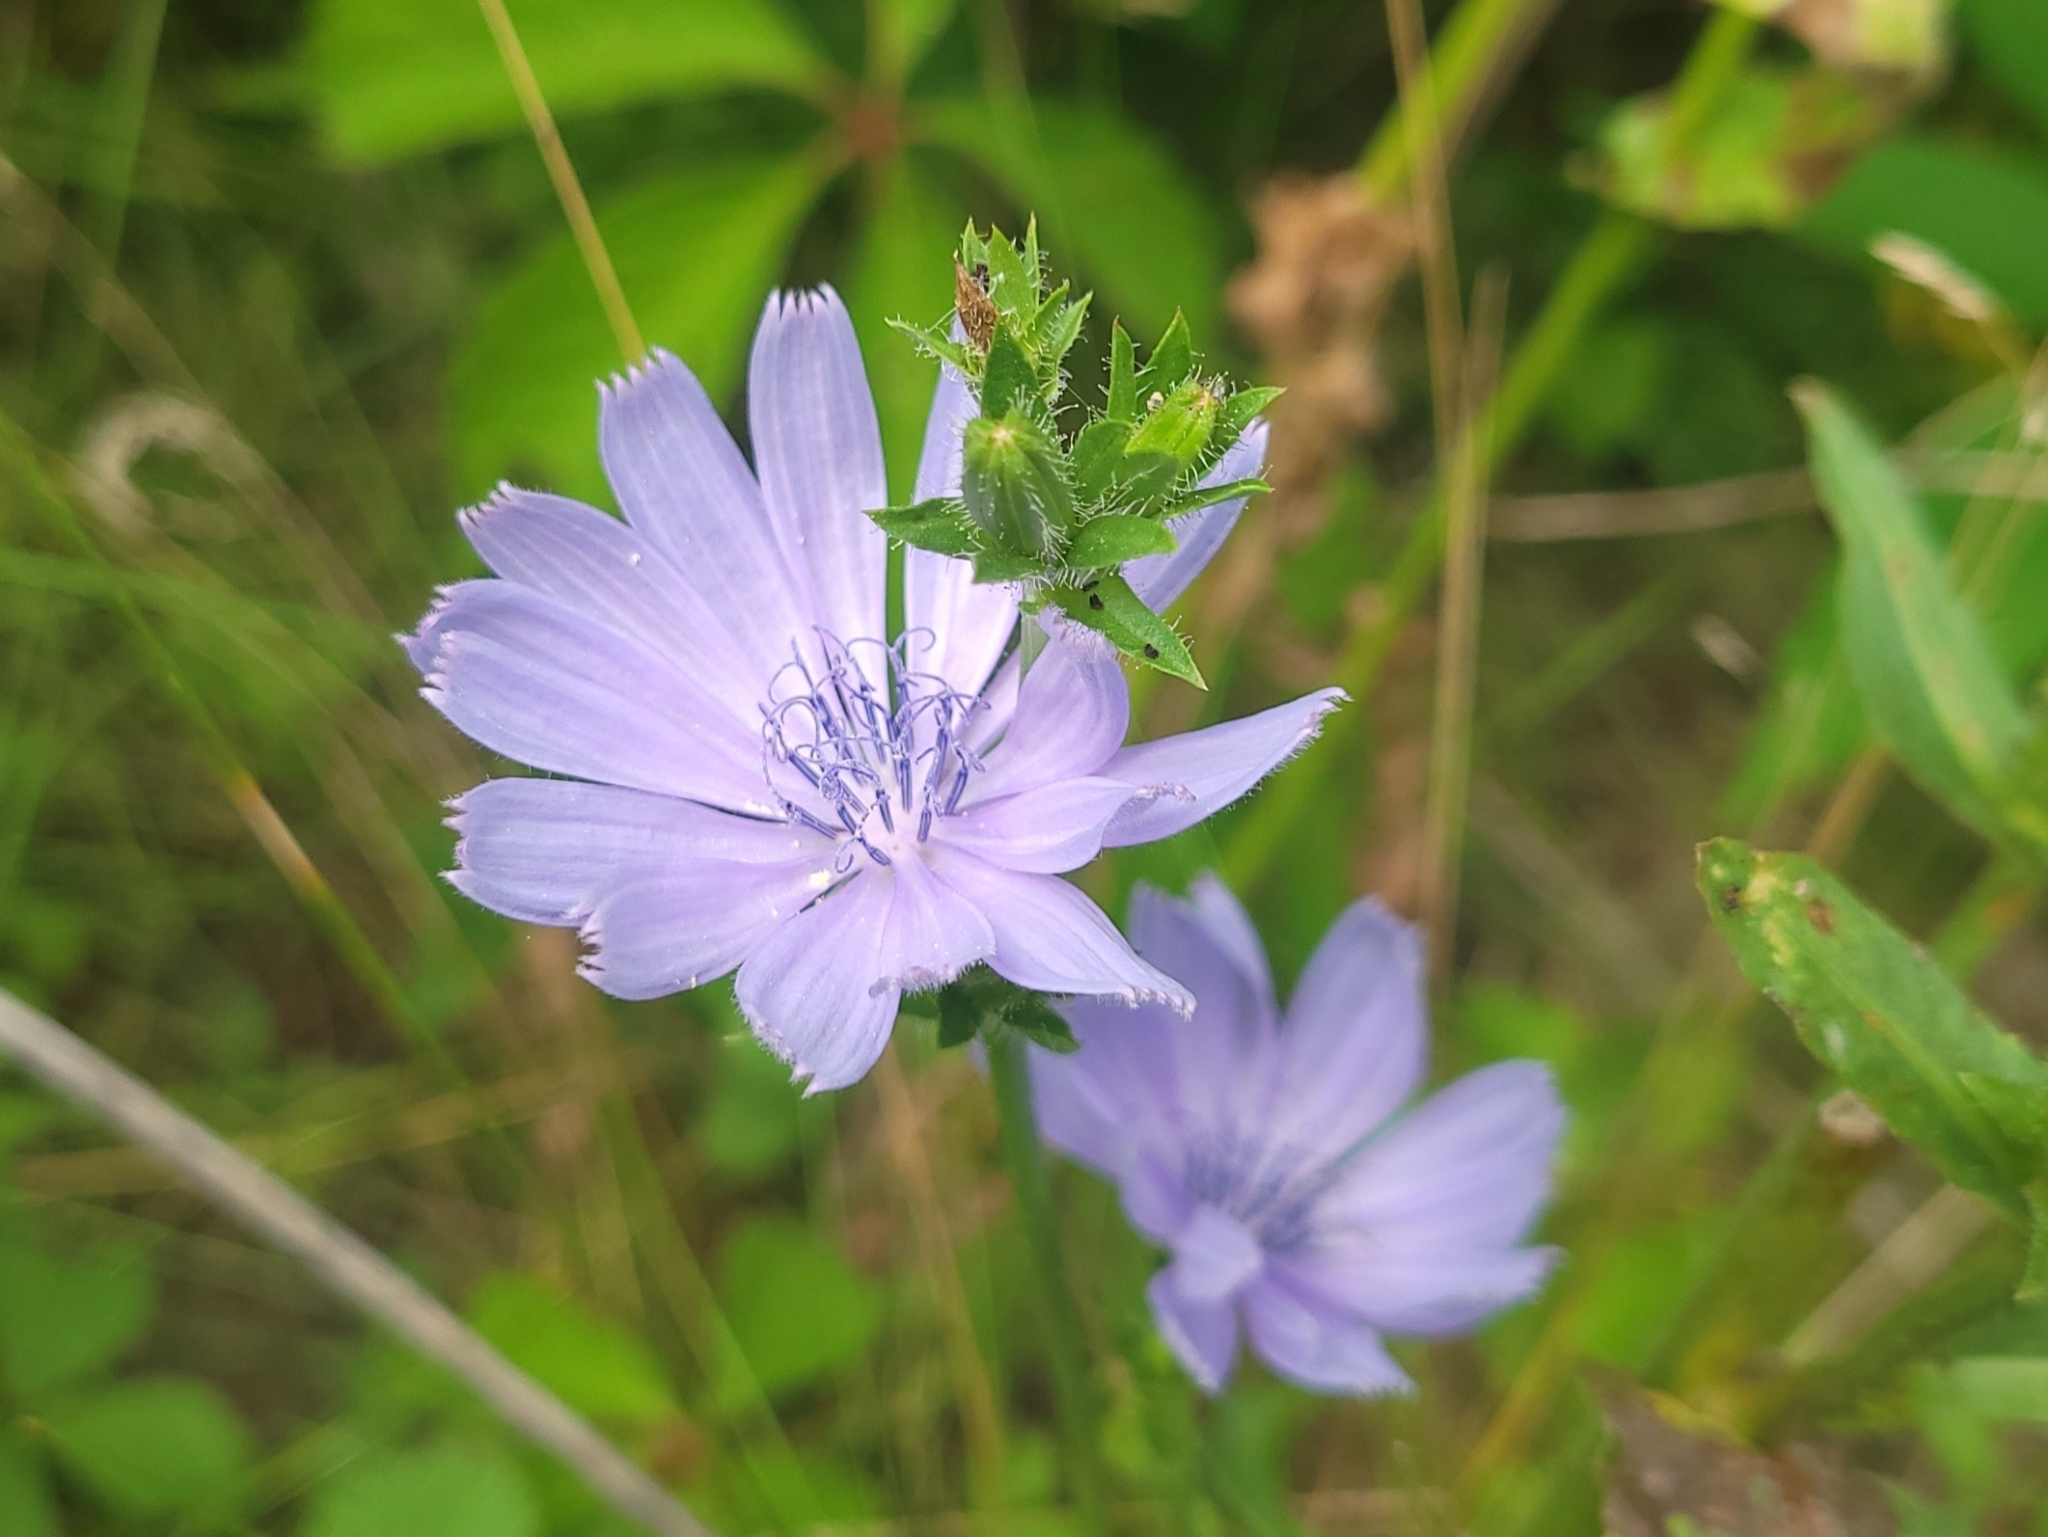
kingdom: Plantae
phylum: Tracheophyta
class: Magnoliopsida
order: Asterales
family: Asteraceae
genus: Cichorium
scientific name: Cichorium intybus
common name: Chicory
